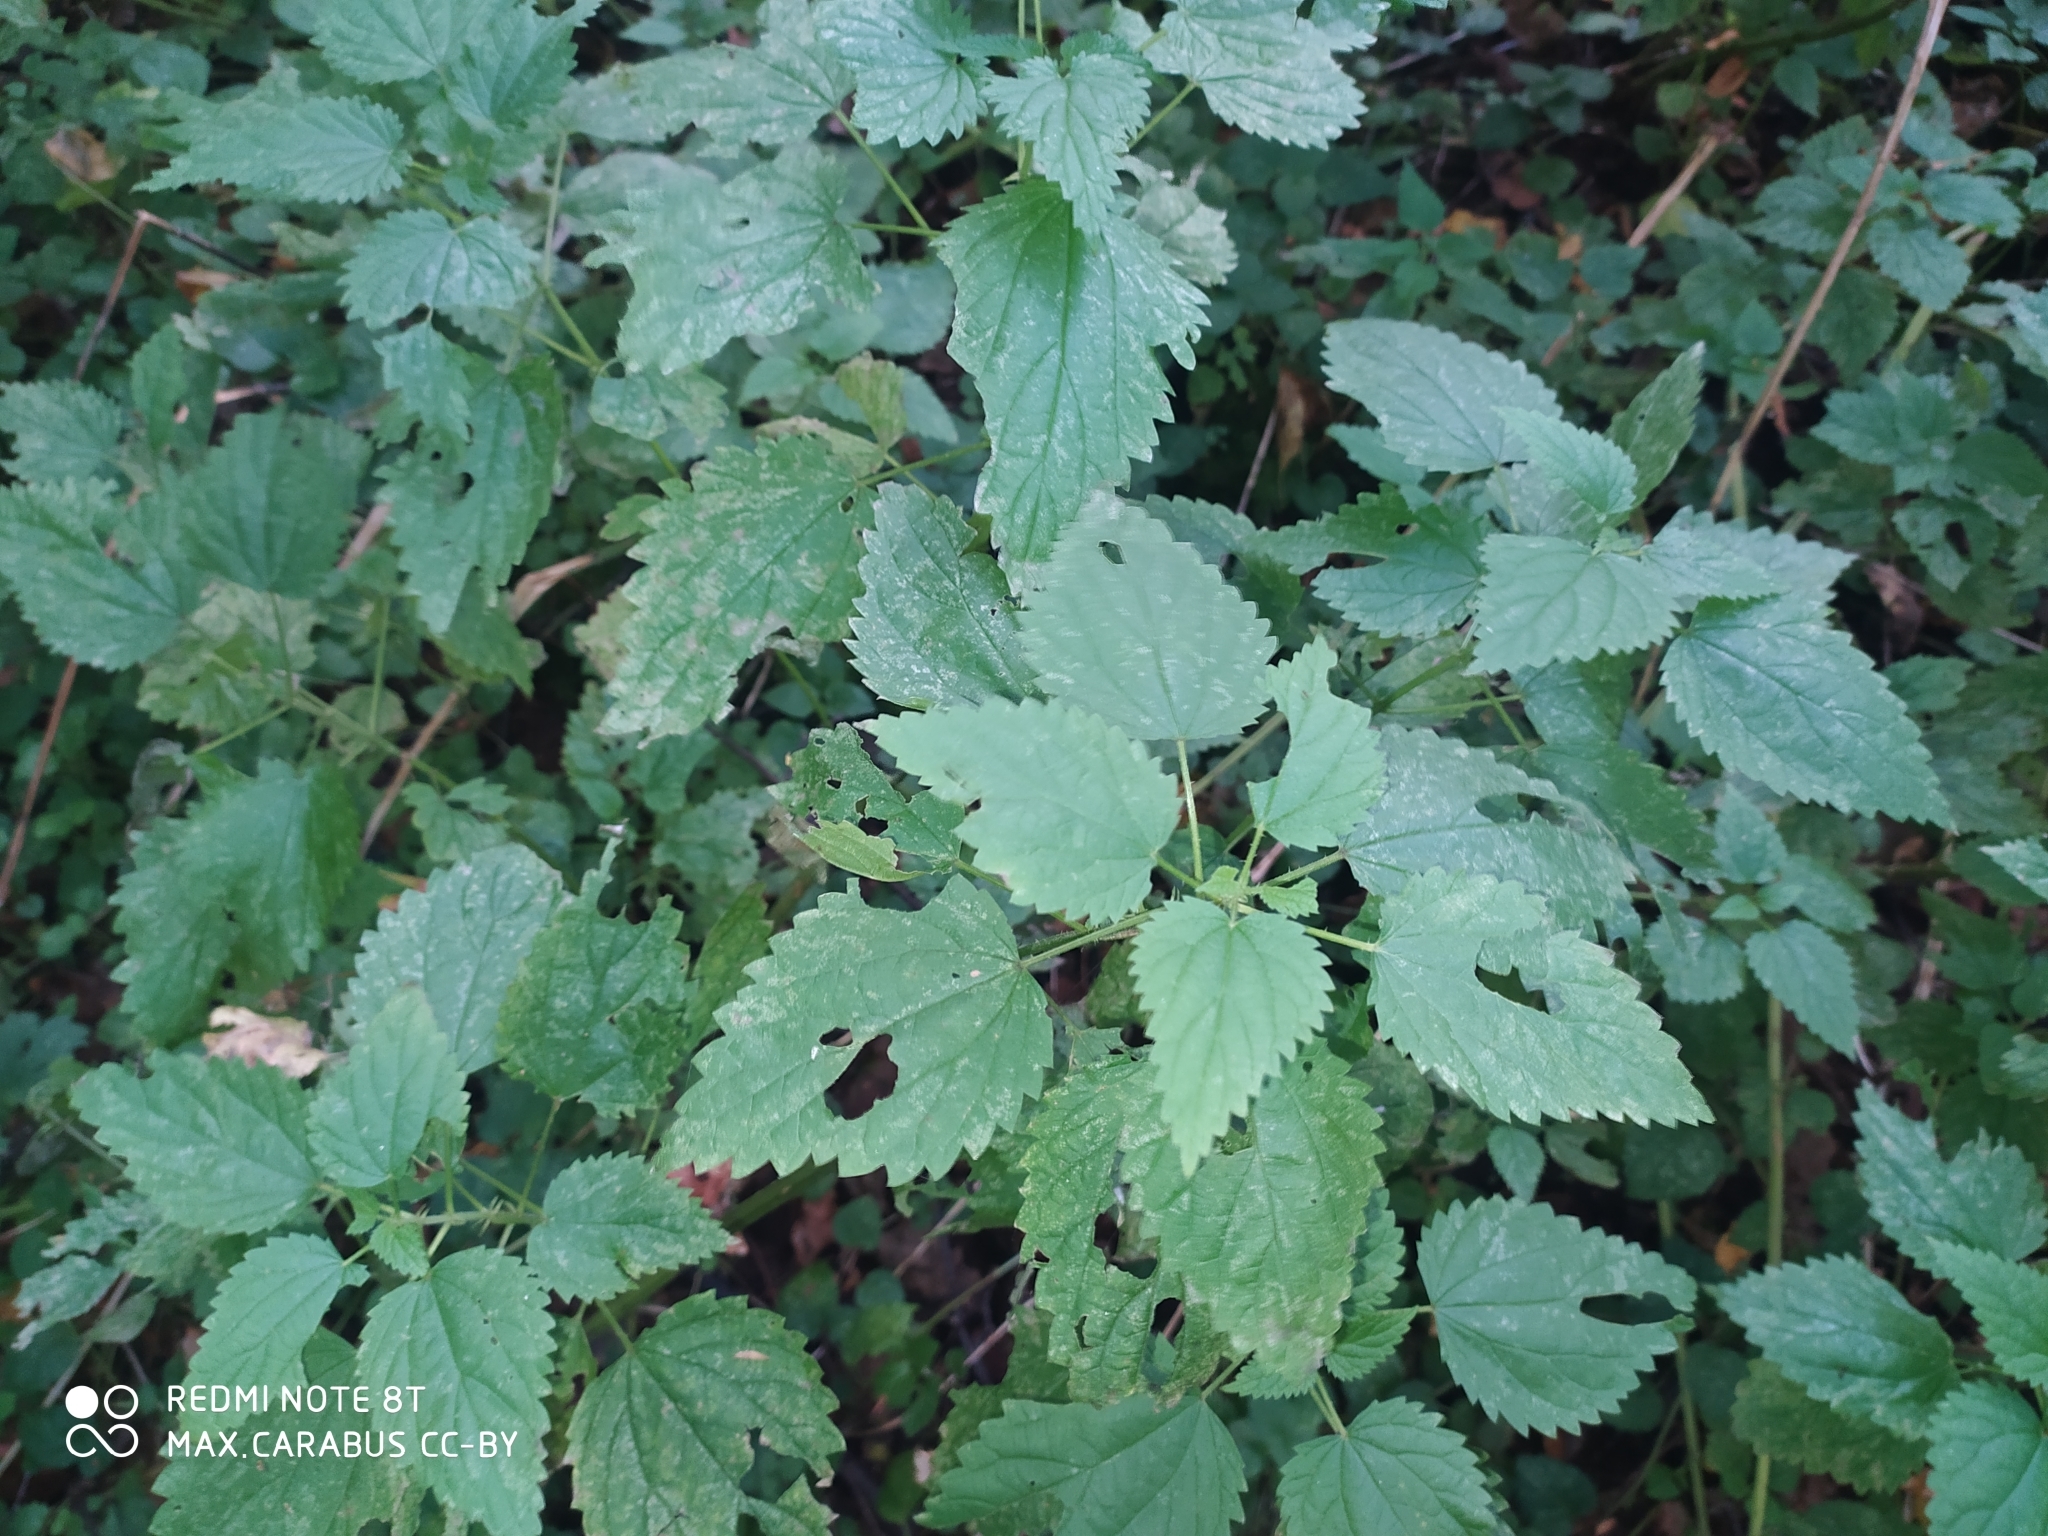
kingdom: Plantae
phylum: Tracheophyta
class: Magnoliopsida
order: Rosales
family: Urticaceae
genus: Urtica
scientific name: Urtica dioica
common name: Common nettle
